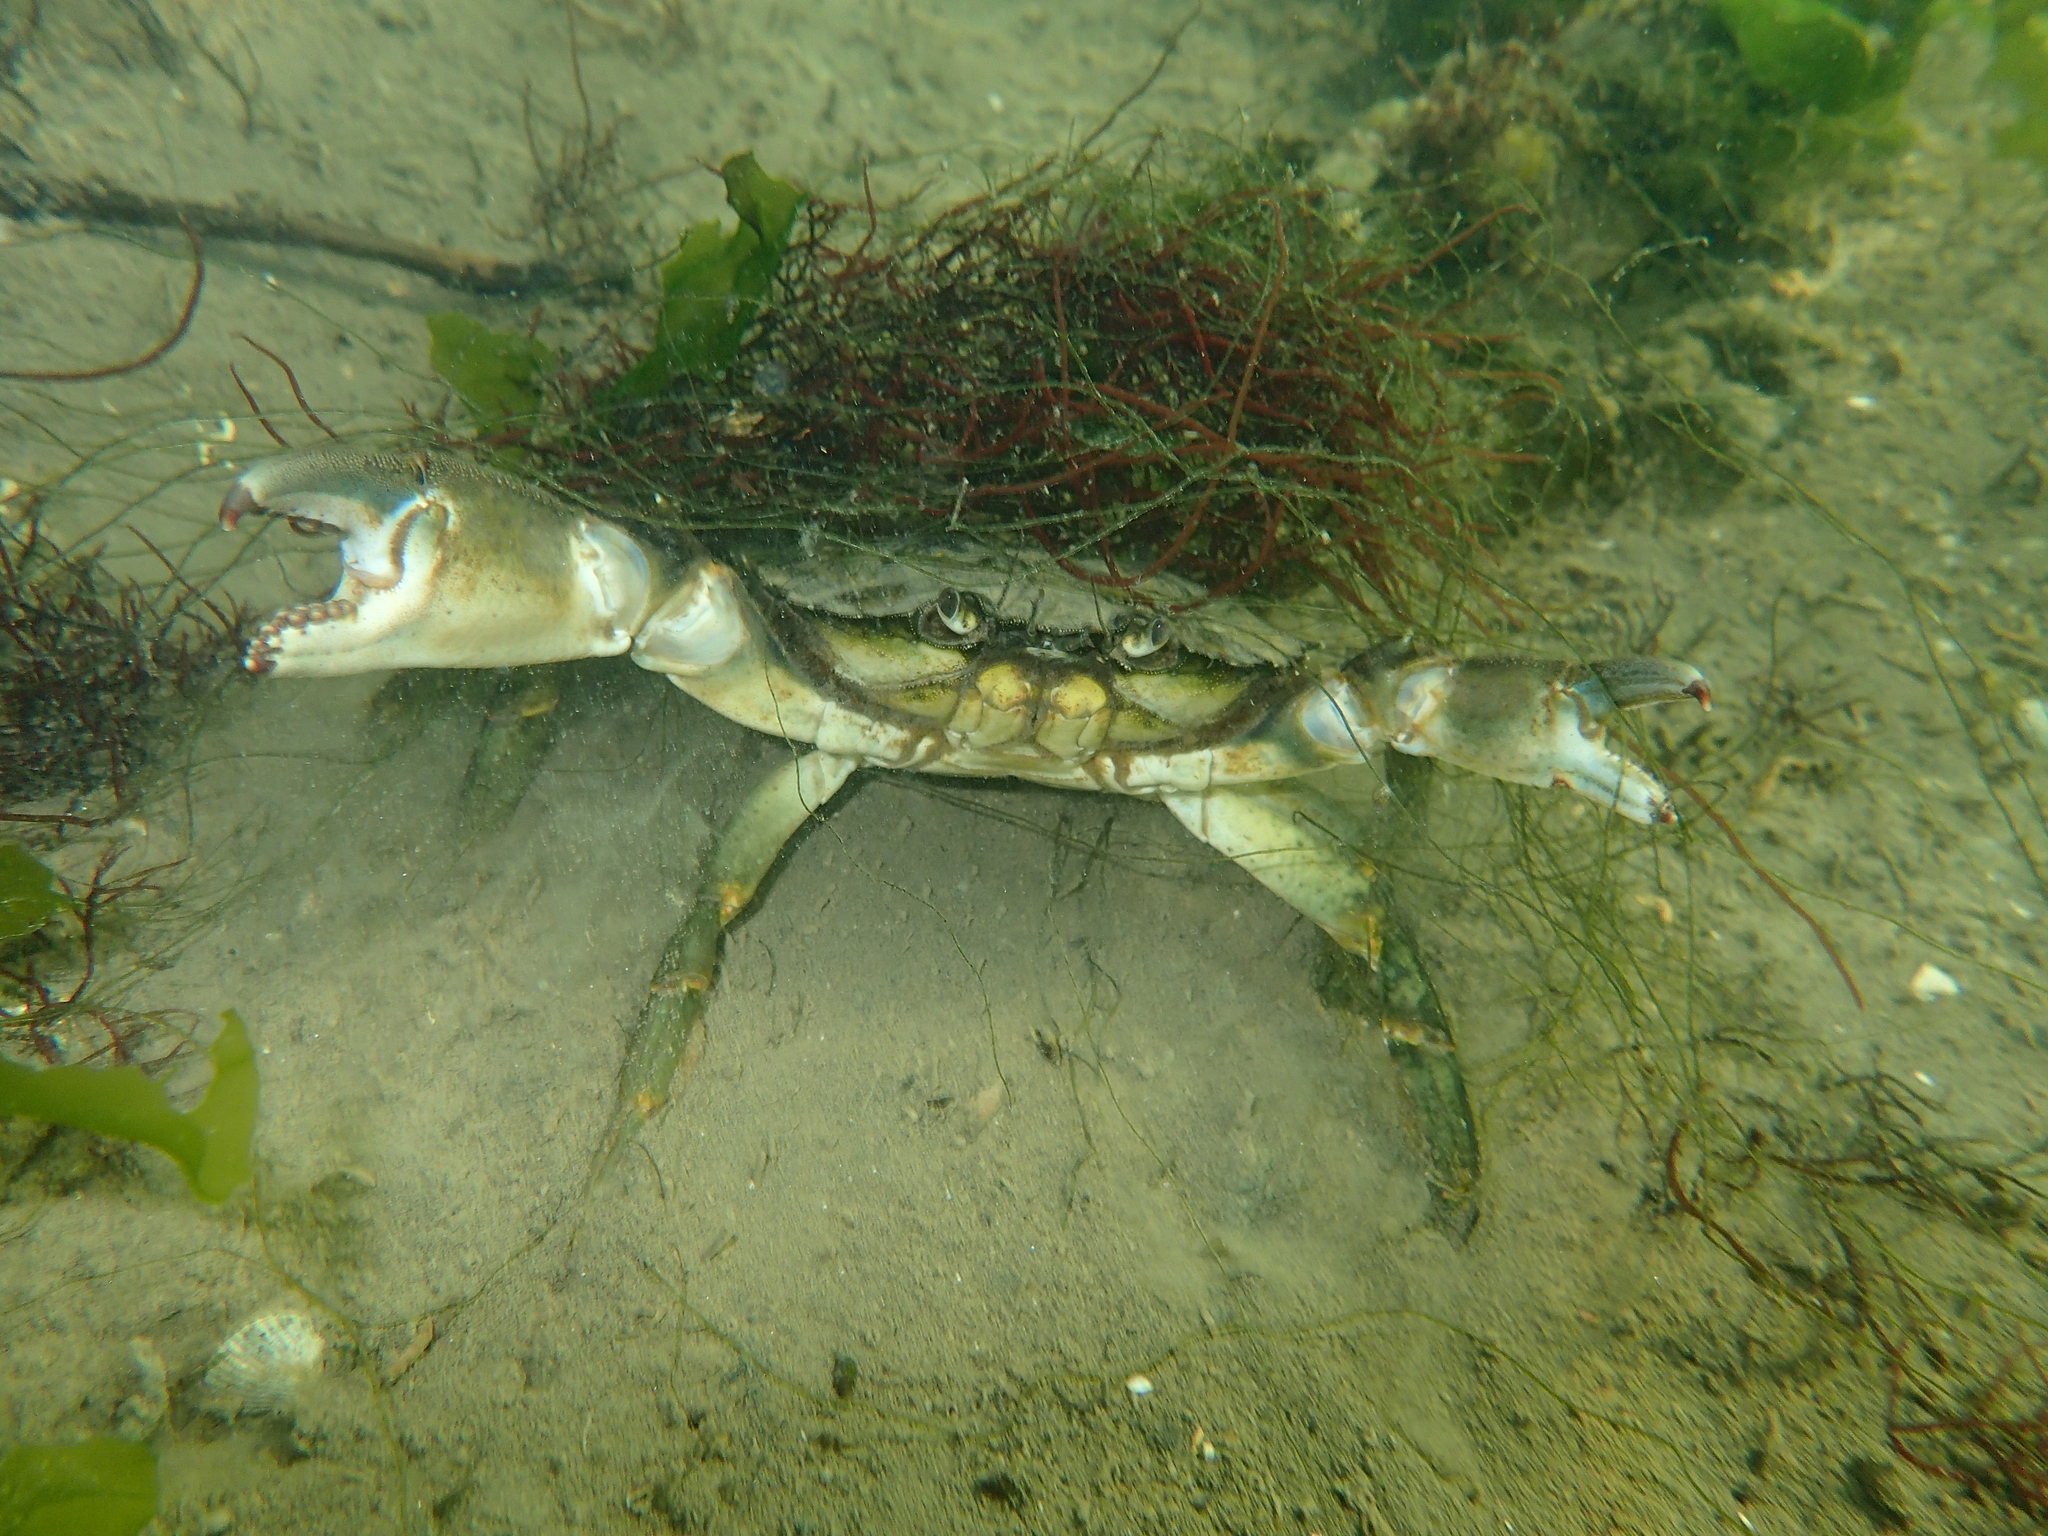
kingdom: Animalia
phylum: Arthropoda
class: Malacostraca
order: Decapoda
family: Carcinidae
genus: Carcinus
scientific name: Carcinus maenas
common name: European green crab
